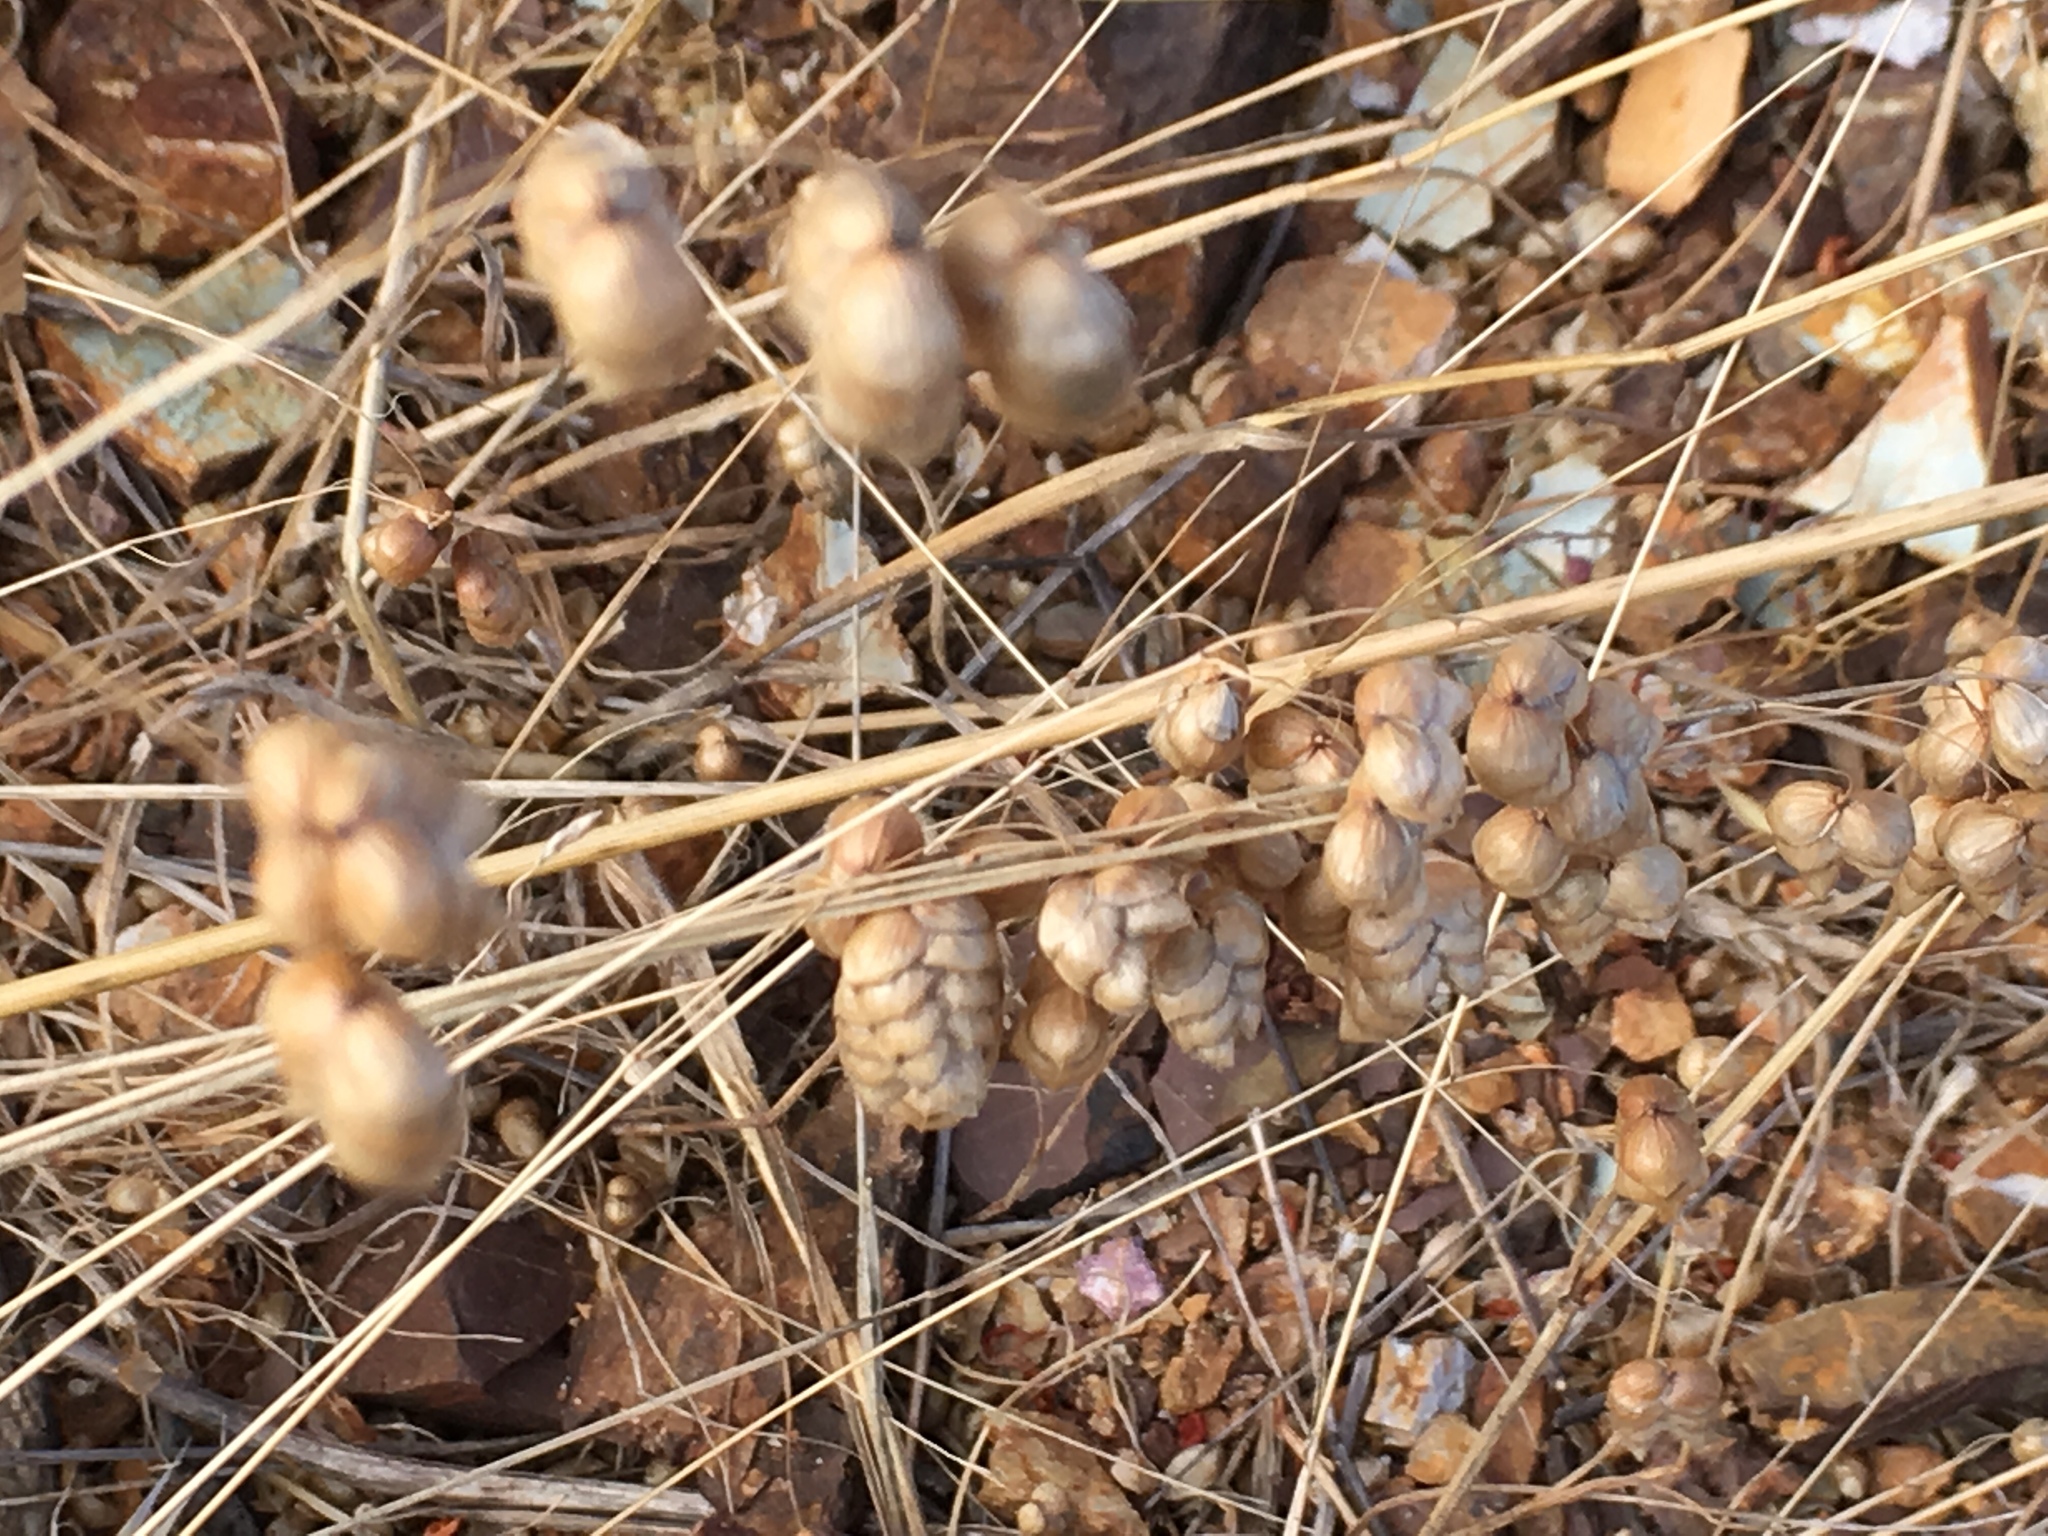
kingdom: Plantae
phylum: Tracheophyta
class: Liliopsida
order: Poales
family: Poaceae
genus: Briza
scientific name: Briza maxima
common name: Big quakinggrass
